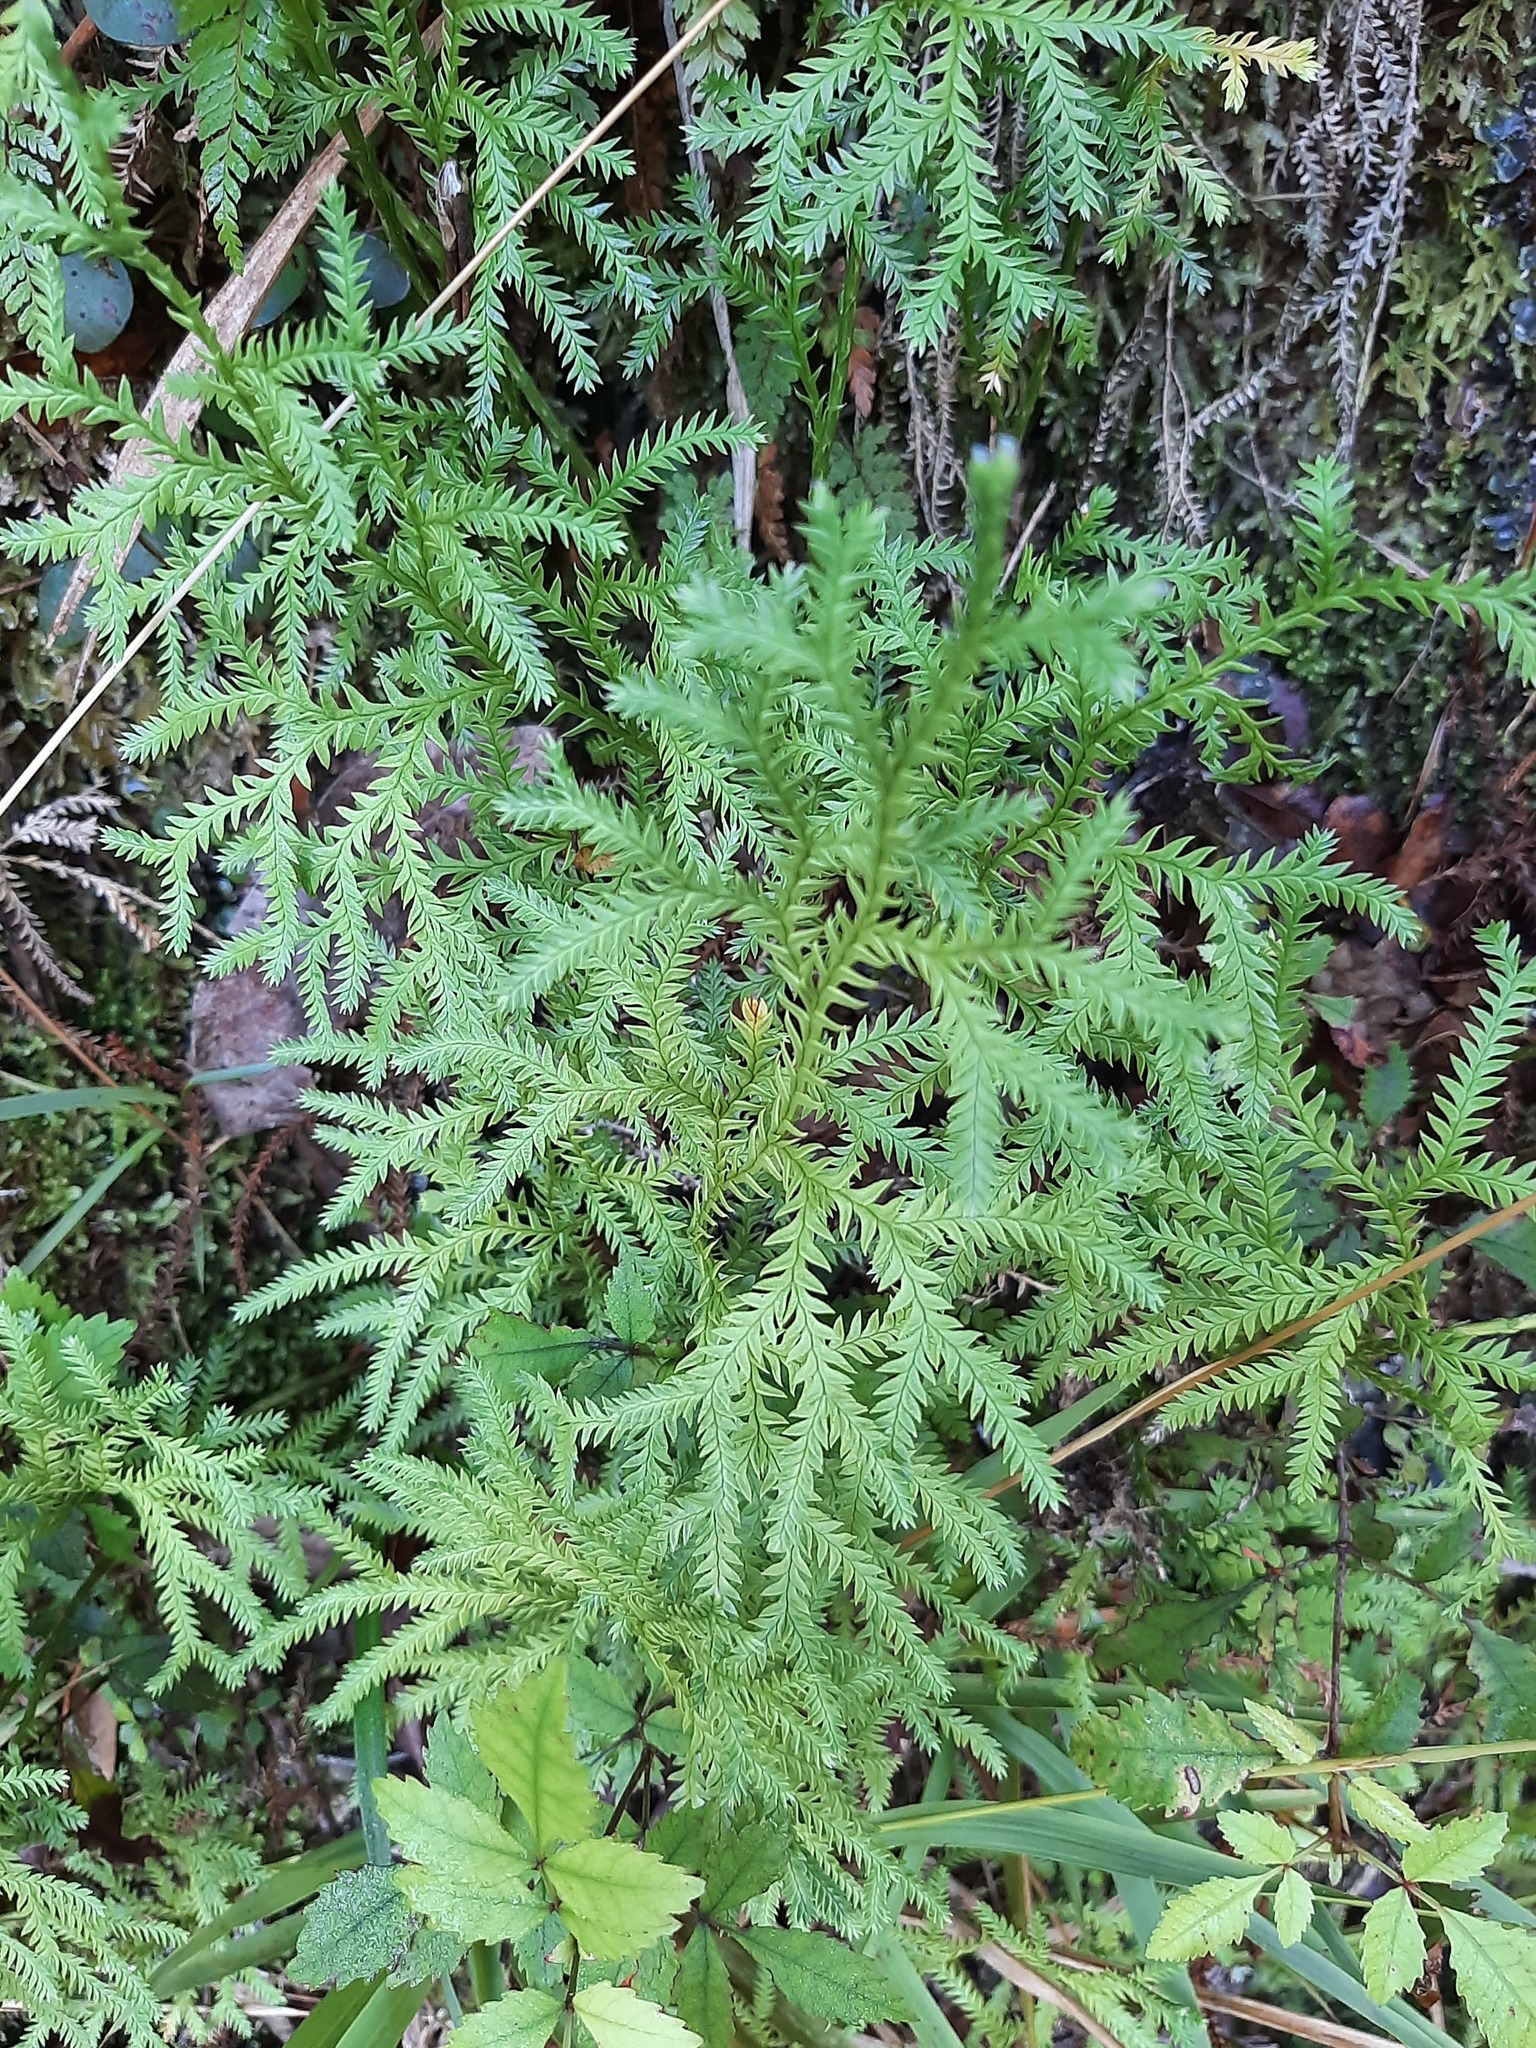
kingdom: Plantae
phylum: Tracheophyta
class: Lycopodiopsida
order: Lycopodiales
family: Lycopodiaceae
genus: Diphasium
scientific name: Diphasium scariosum
